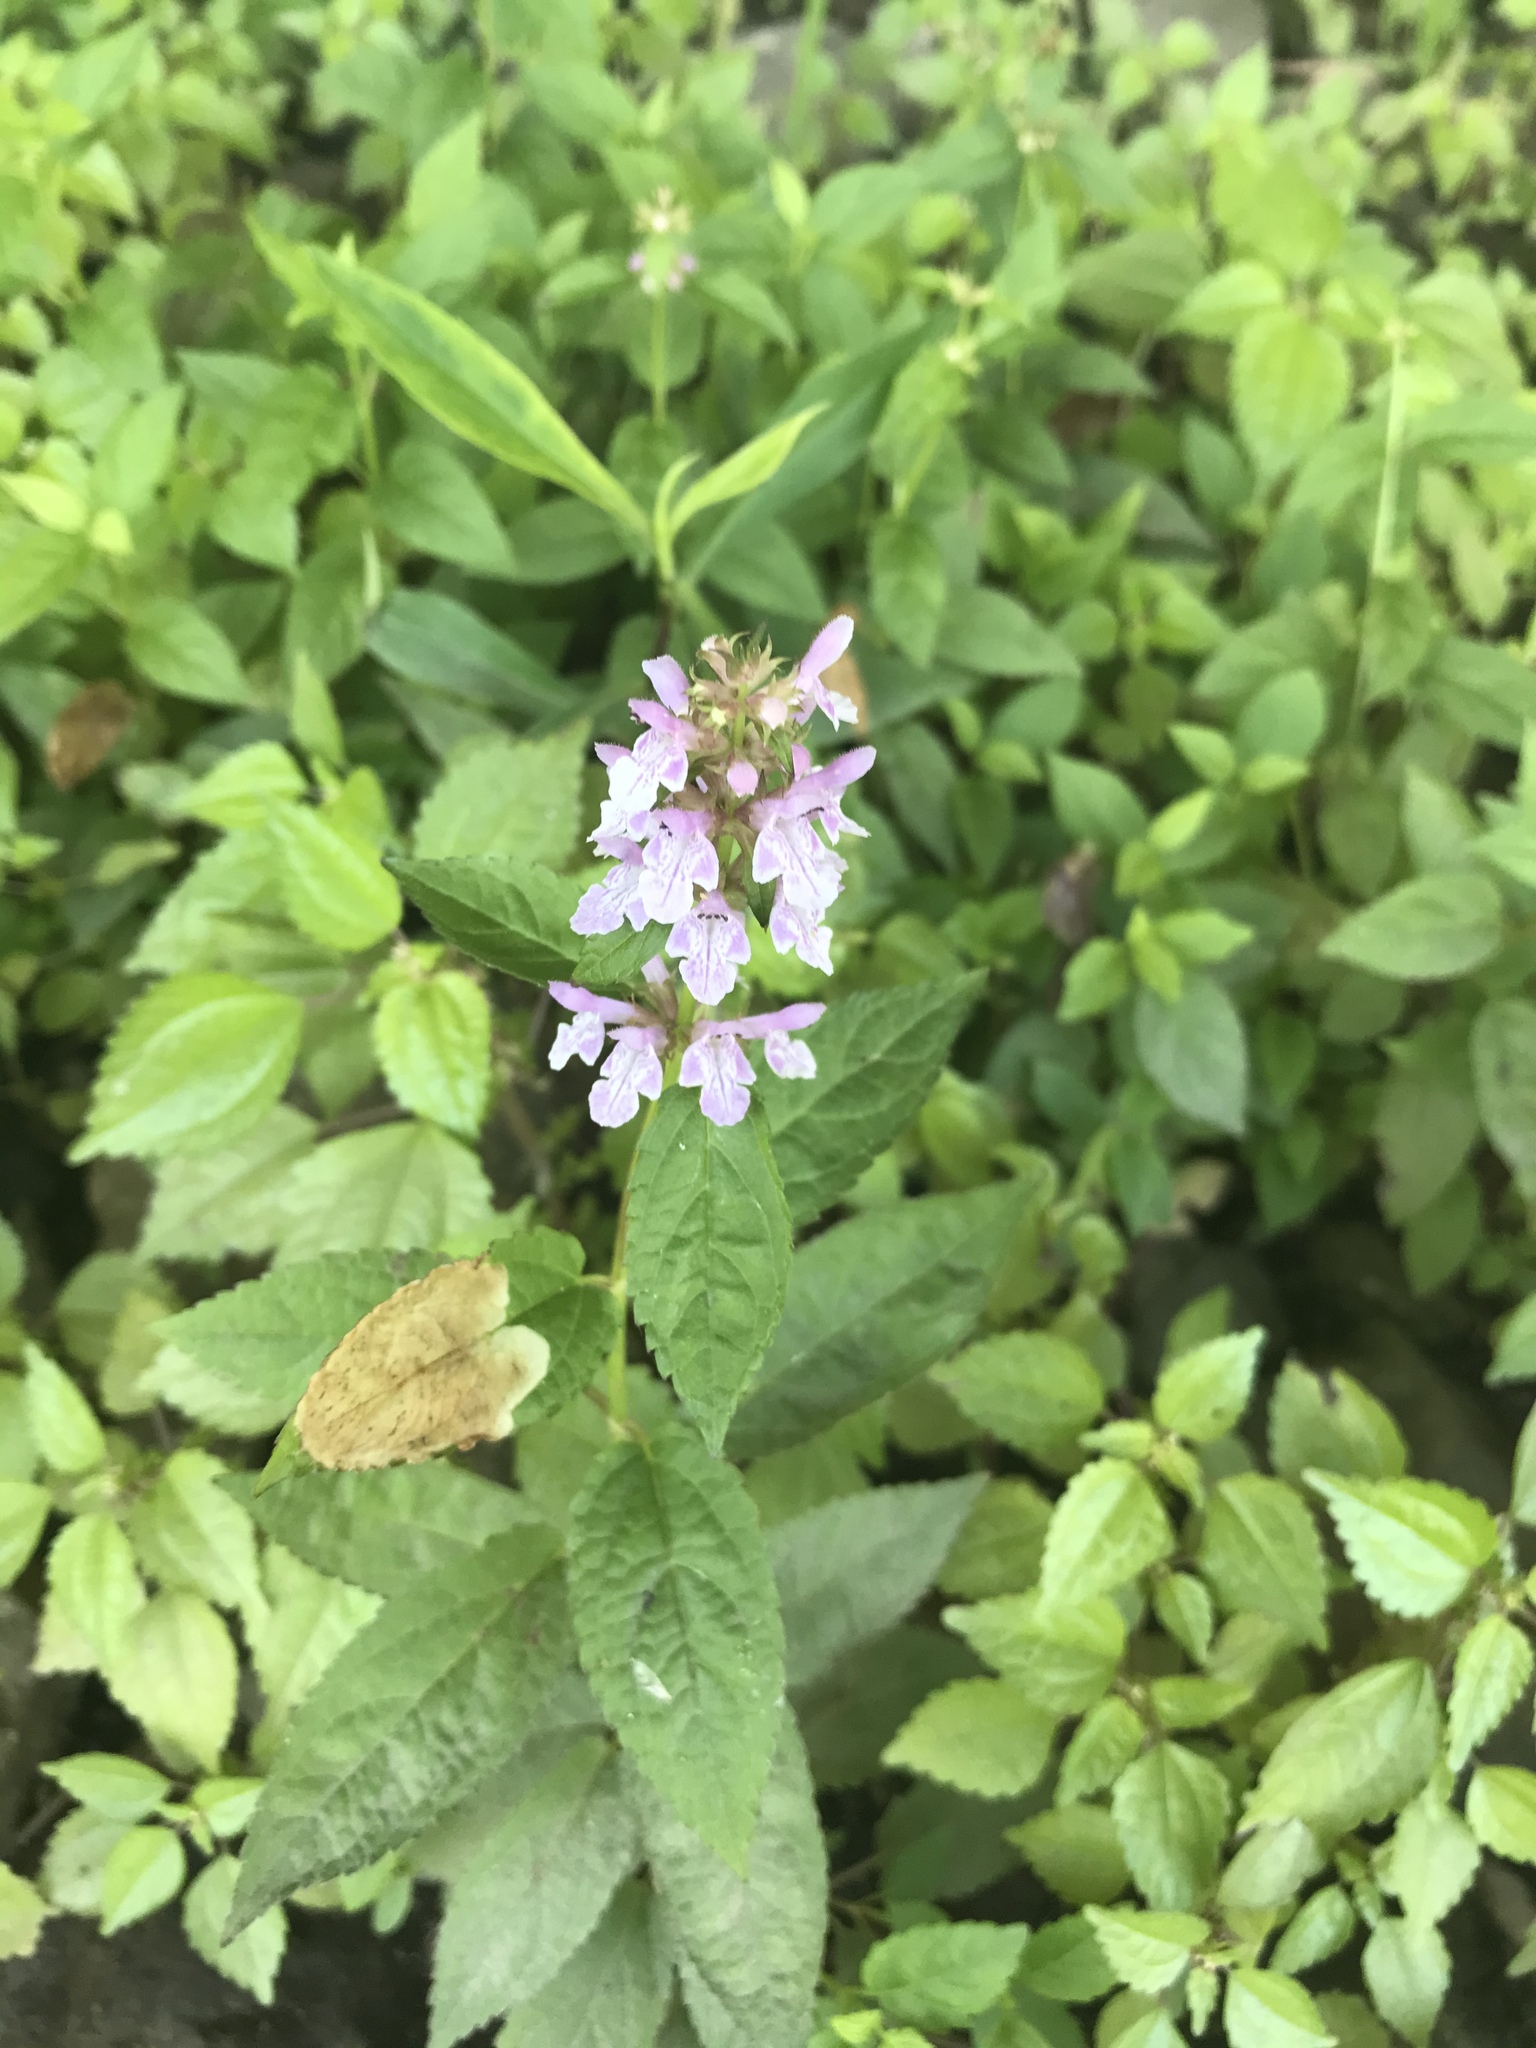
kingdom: Plantae
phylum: Tracheophyta
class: Magnoliopsida
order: Lamiales
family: Lamiaceae
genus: Stachys
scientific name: Stachys palustris
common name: Marsh woundwort
